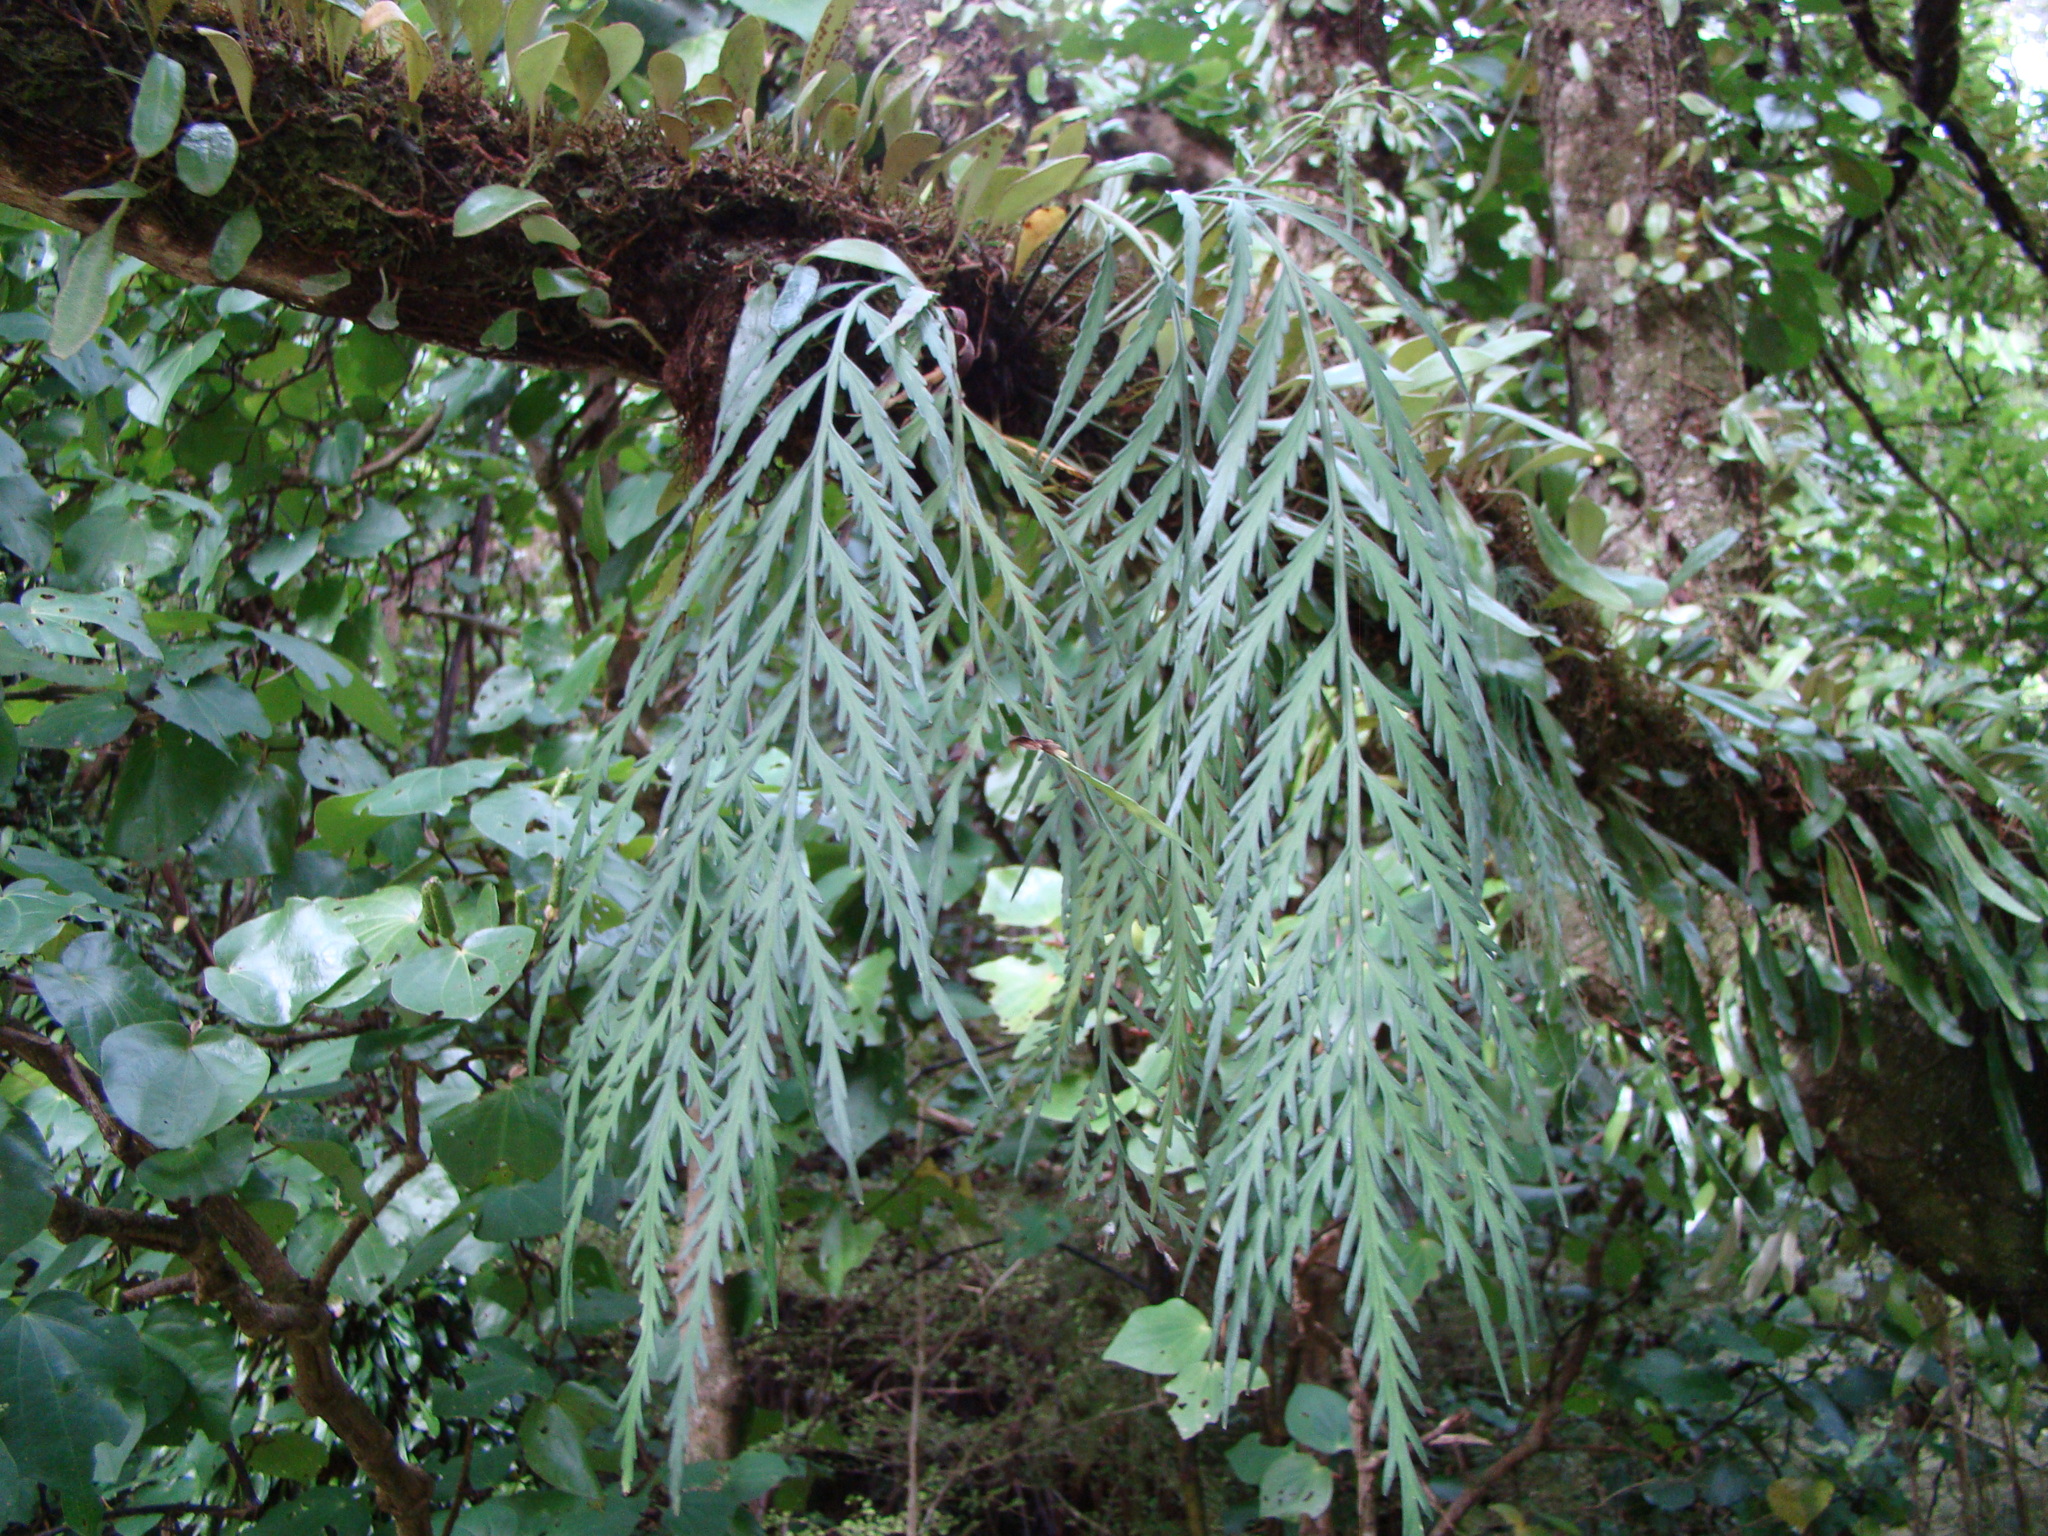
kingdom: Plantae
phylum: Tracheophyta
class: Polypodiopsida
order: Polypodiales
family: Aspleniaceae
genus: Asplenium
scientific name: Asplenium flaccidum
